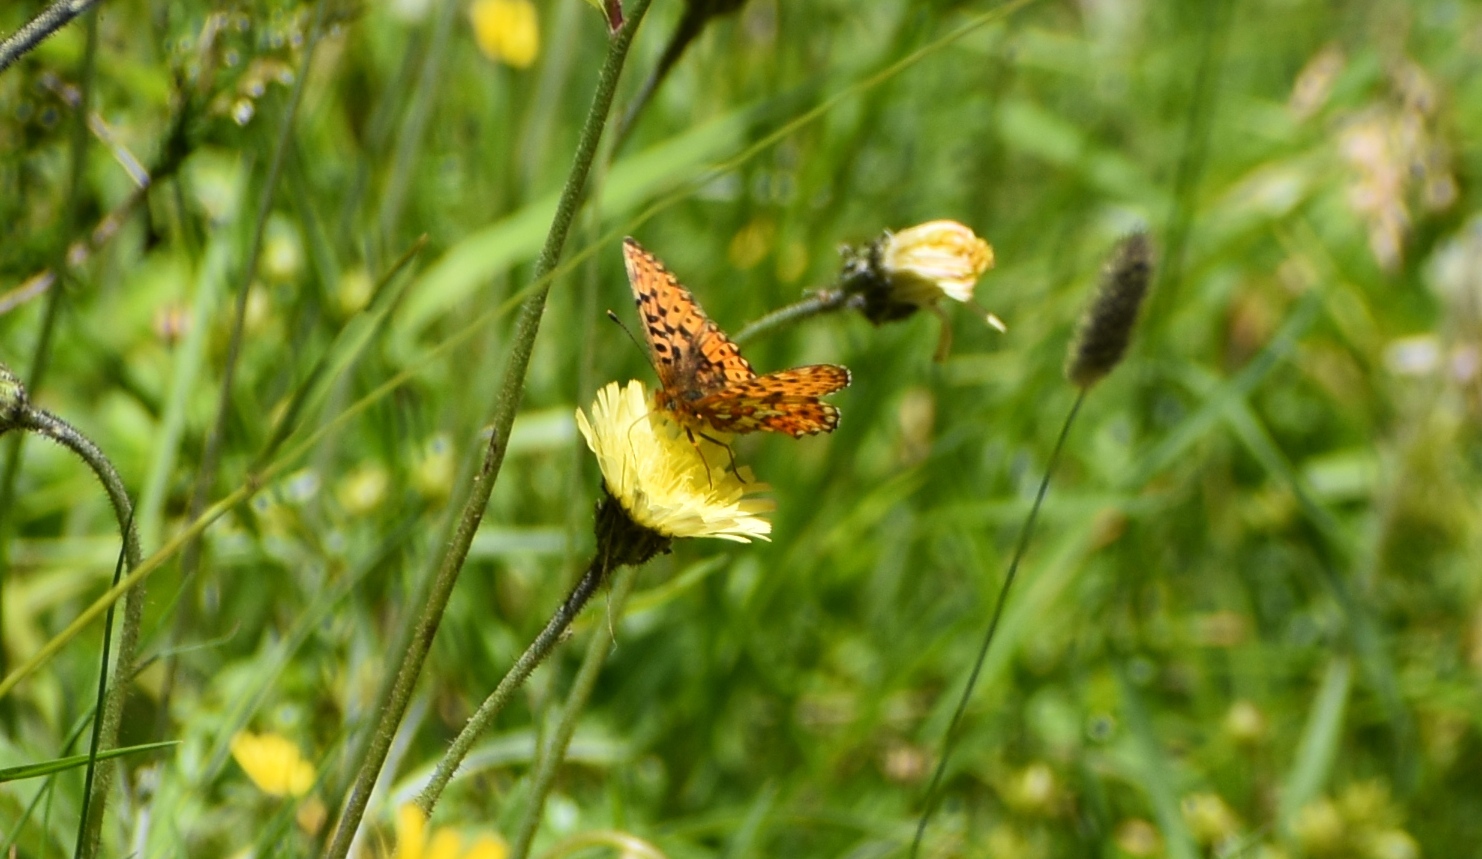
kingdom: Animalia
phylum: Arthropoda
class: Insecta
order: Lepidoptera
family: Nymphalidae
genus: Clossiana
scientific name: Clossiana euphrosyne
